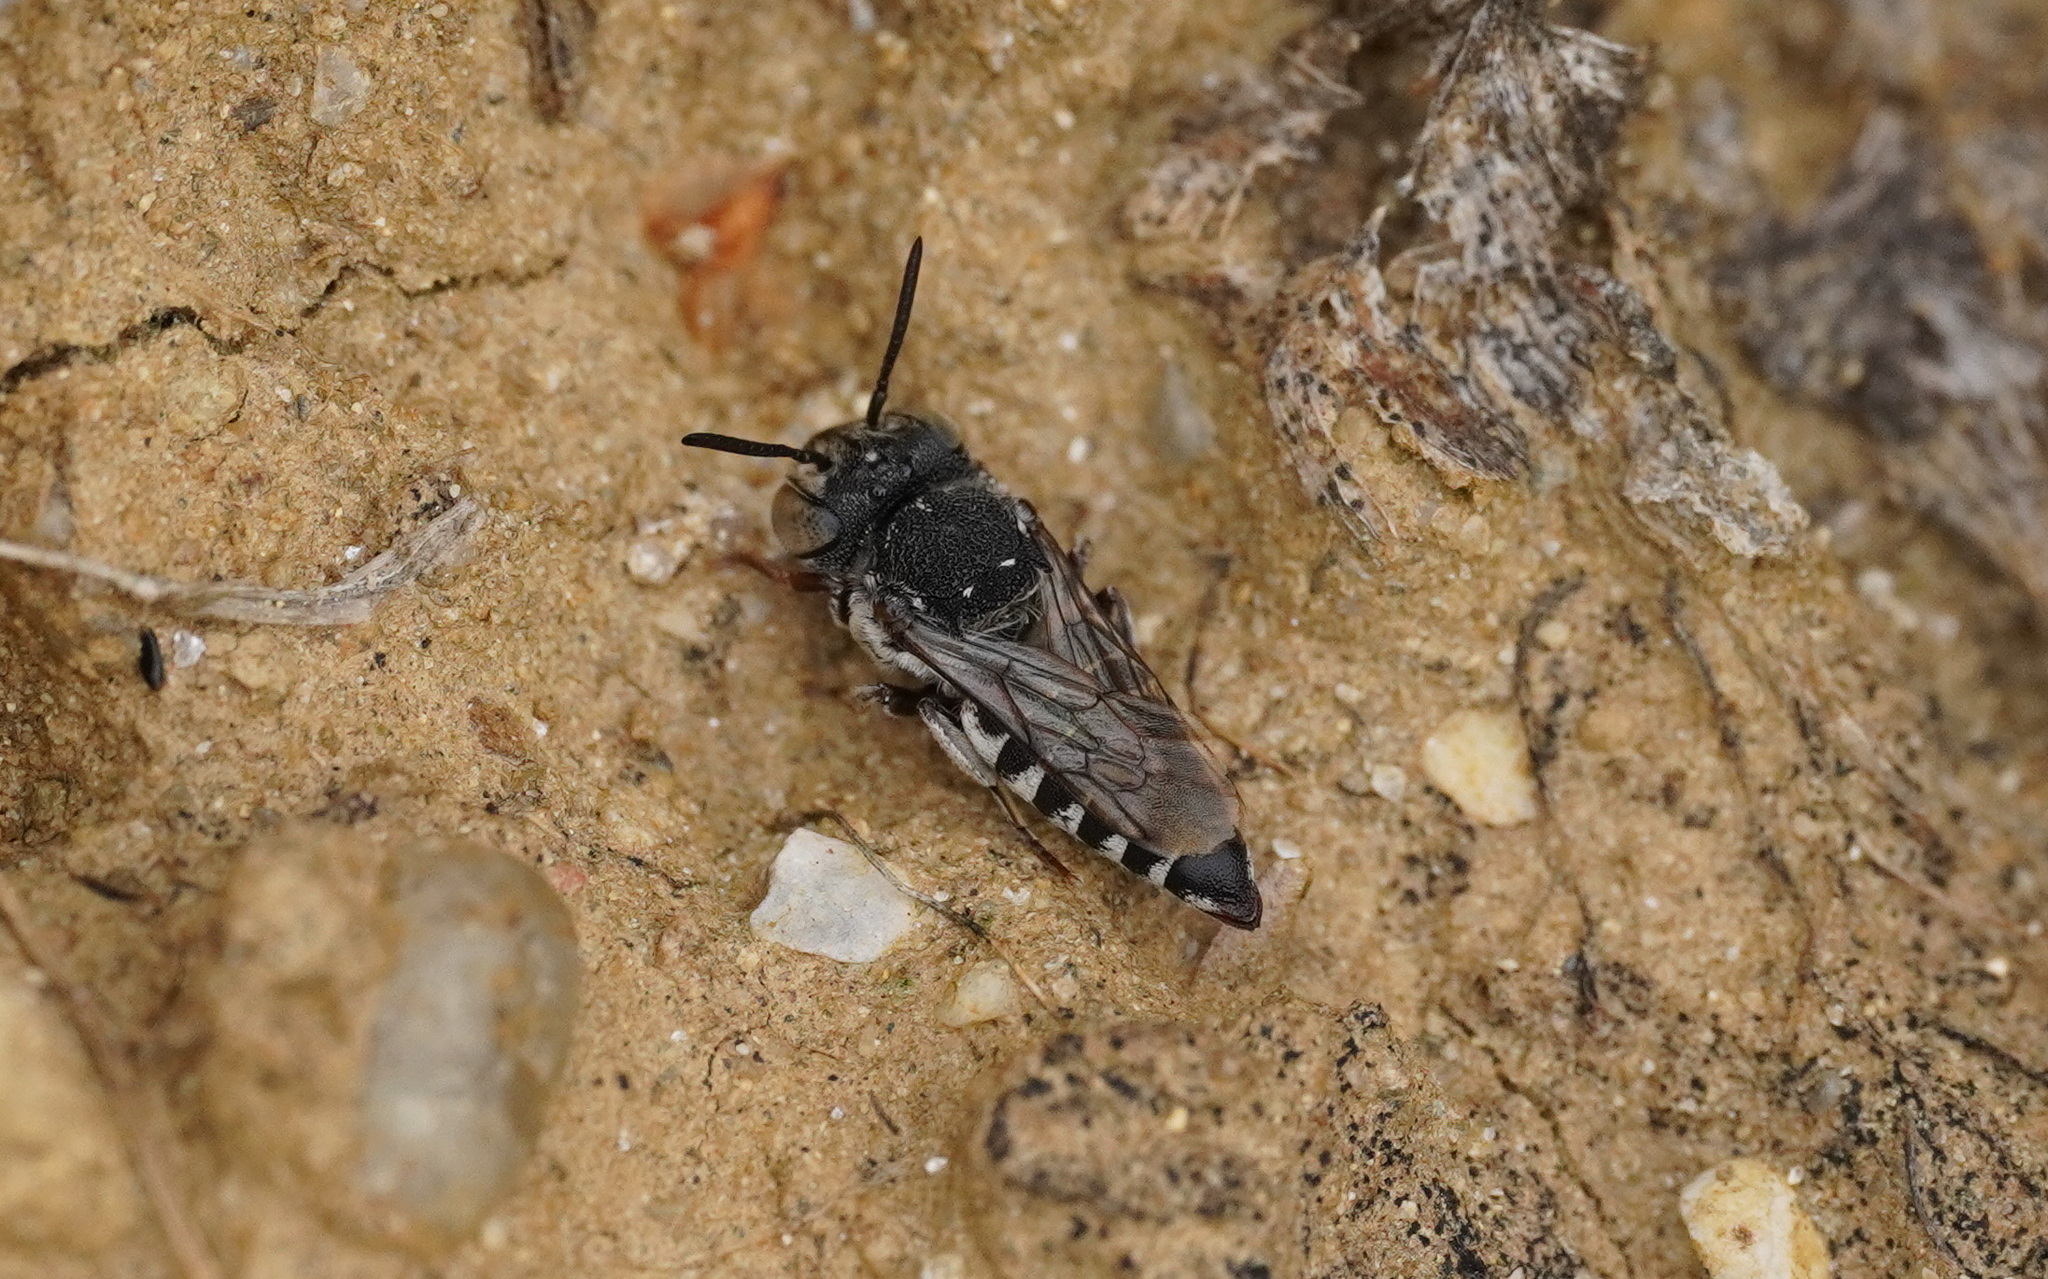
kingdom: Animalia
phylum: Arthropoda
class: Insecta
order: Hymenoptera
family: Megachilidae
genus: Coelioxys
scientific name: Coelioxys afra
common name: Short sharp-tail bee
